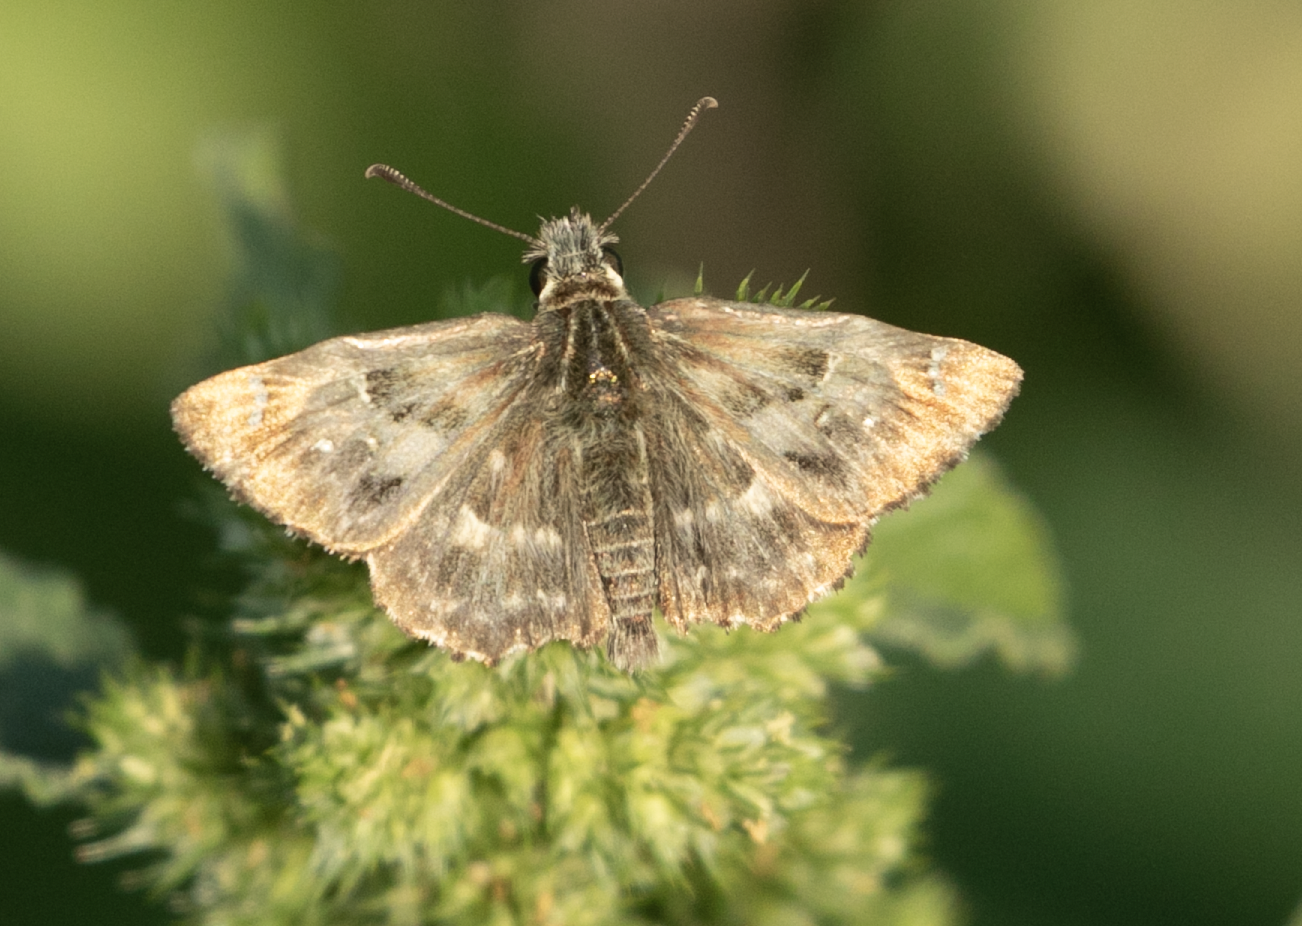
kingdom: Animalia
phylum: Arthropoda
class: Insecta
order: Lepidoptera
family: Hesperiidae
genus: Carcharodus
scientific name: Carcharodus alceae
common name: Mallow skipper
